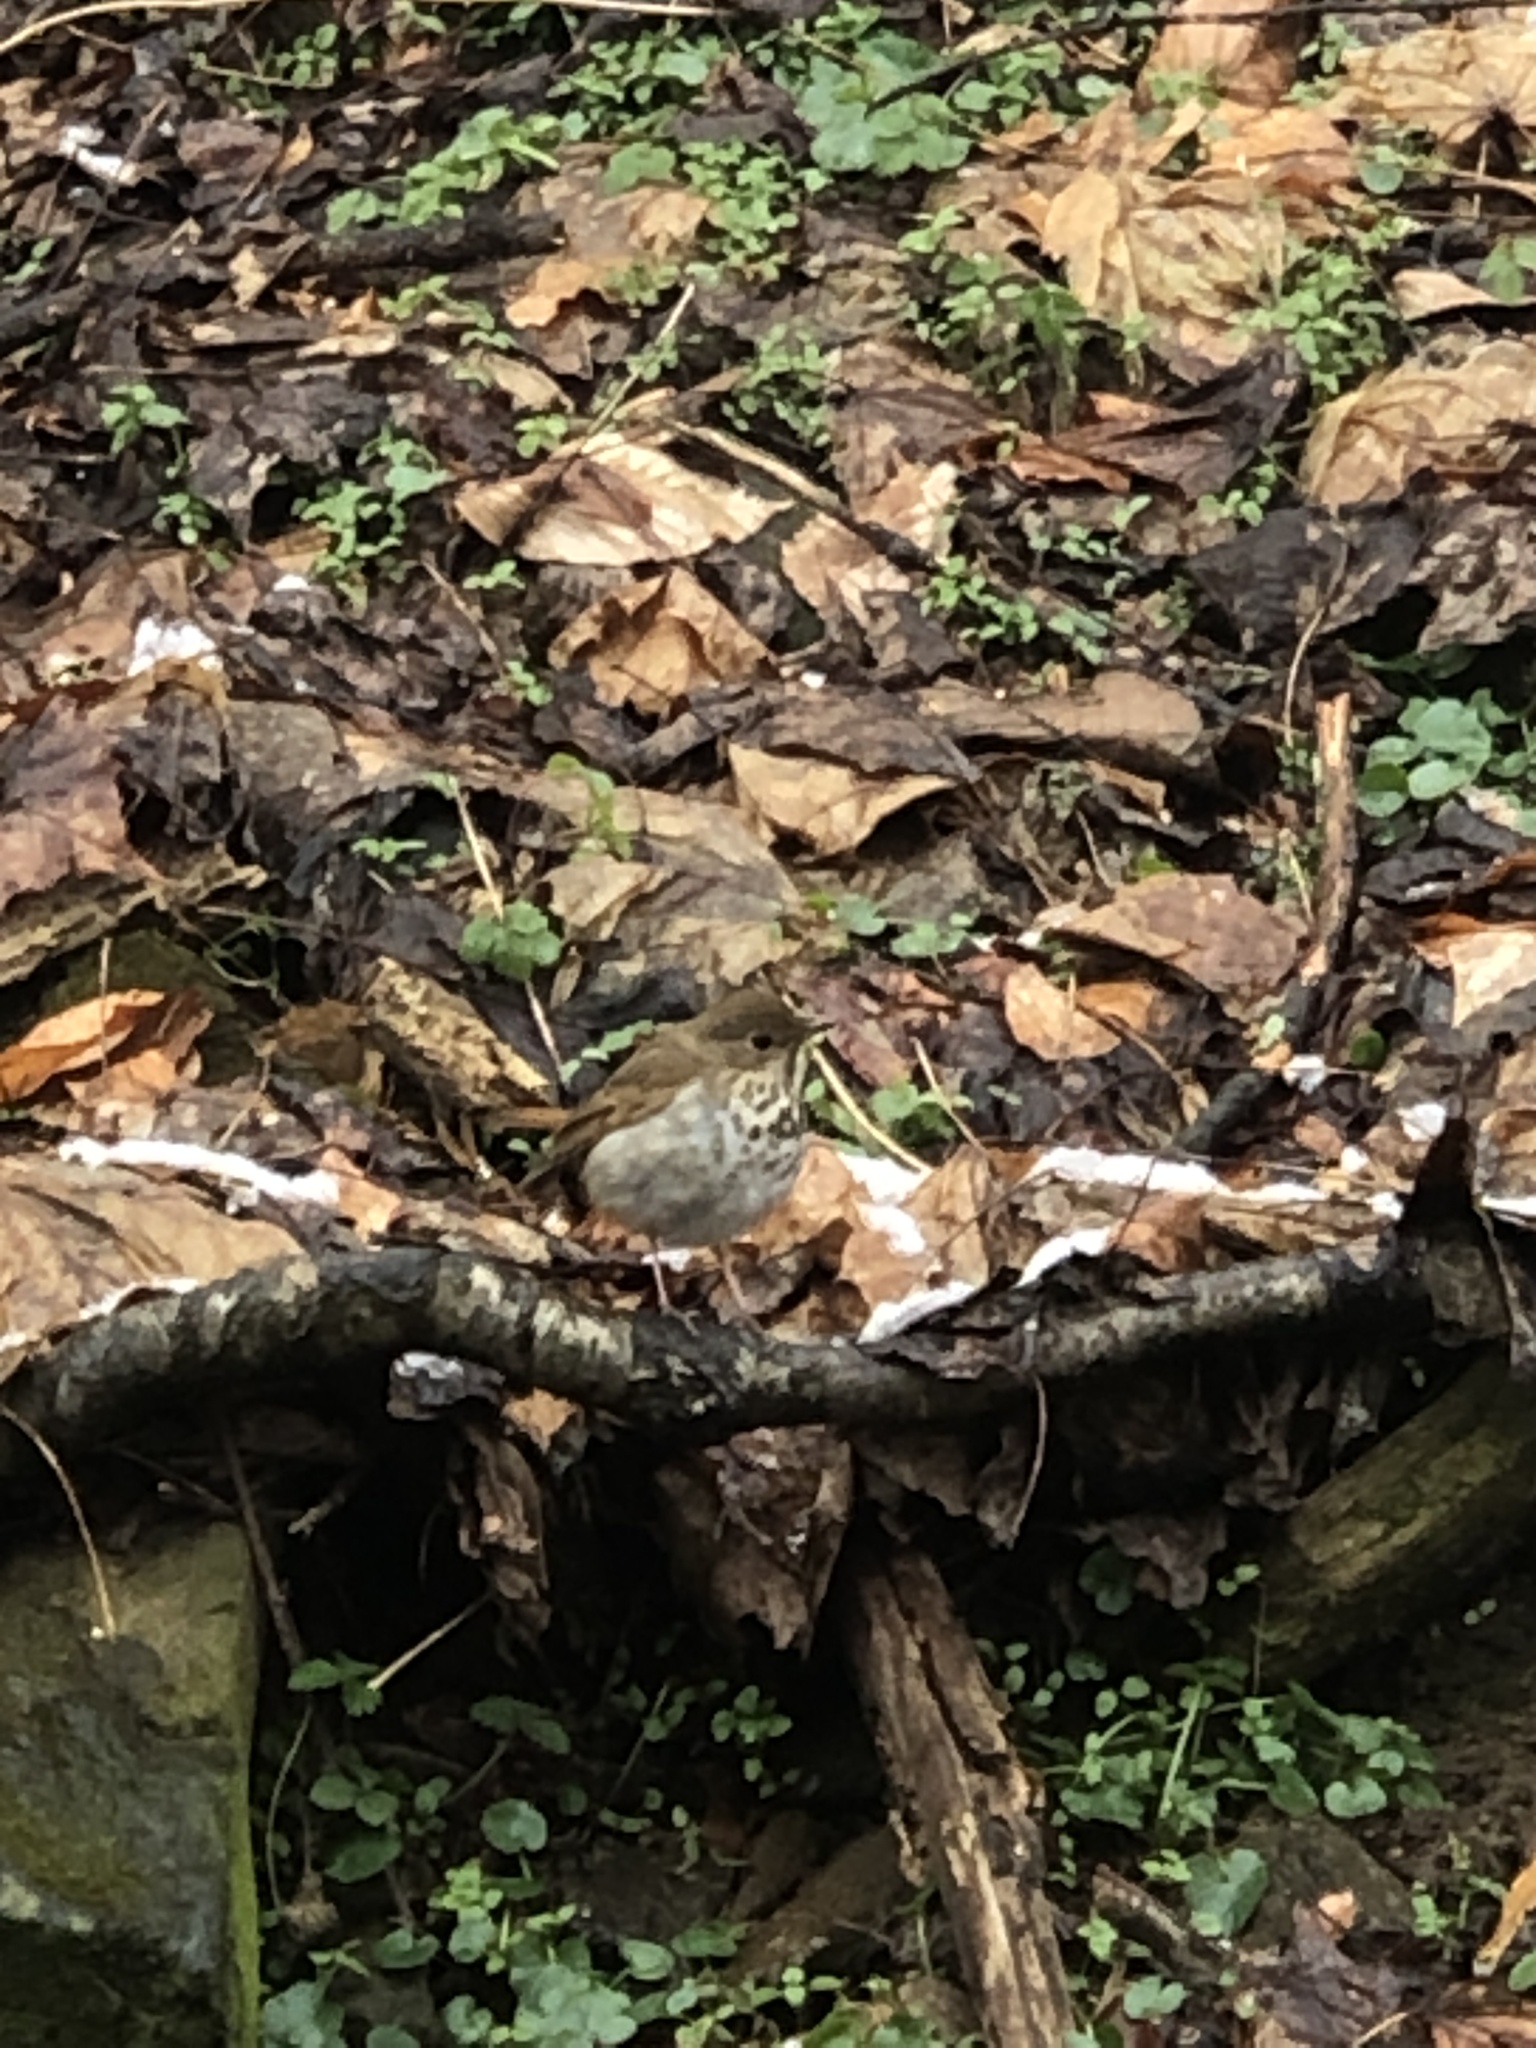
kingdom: Animalia
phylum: Chordata
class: Aves
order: Passeriformes
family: Turdidae
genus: Catharus
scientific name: Catharus guttatus
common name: Hermit thrush
